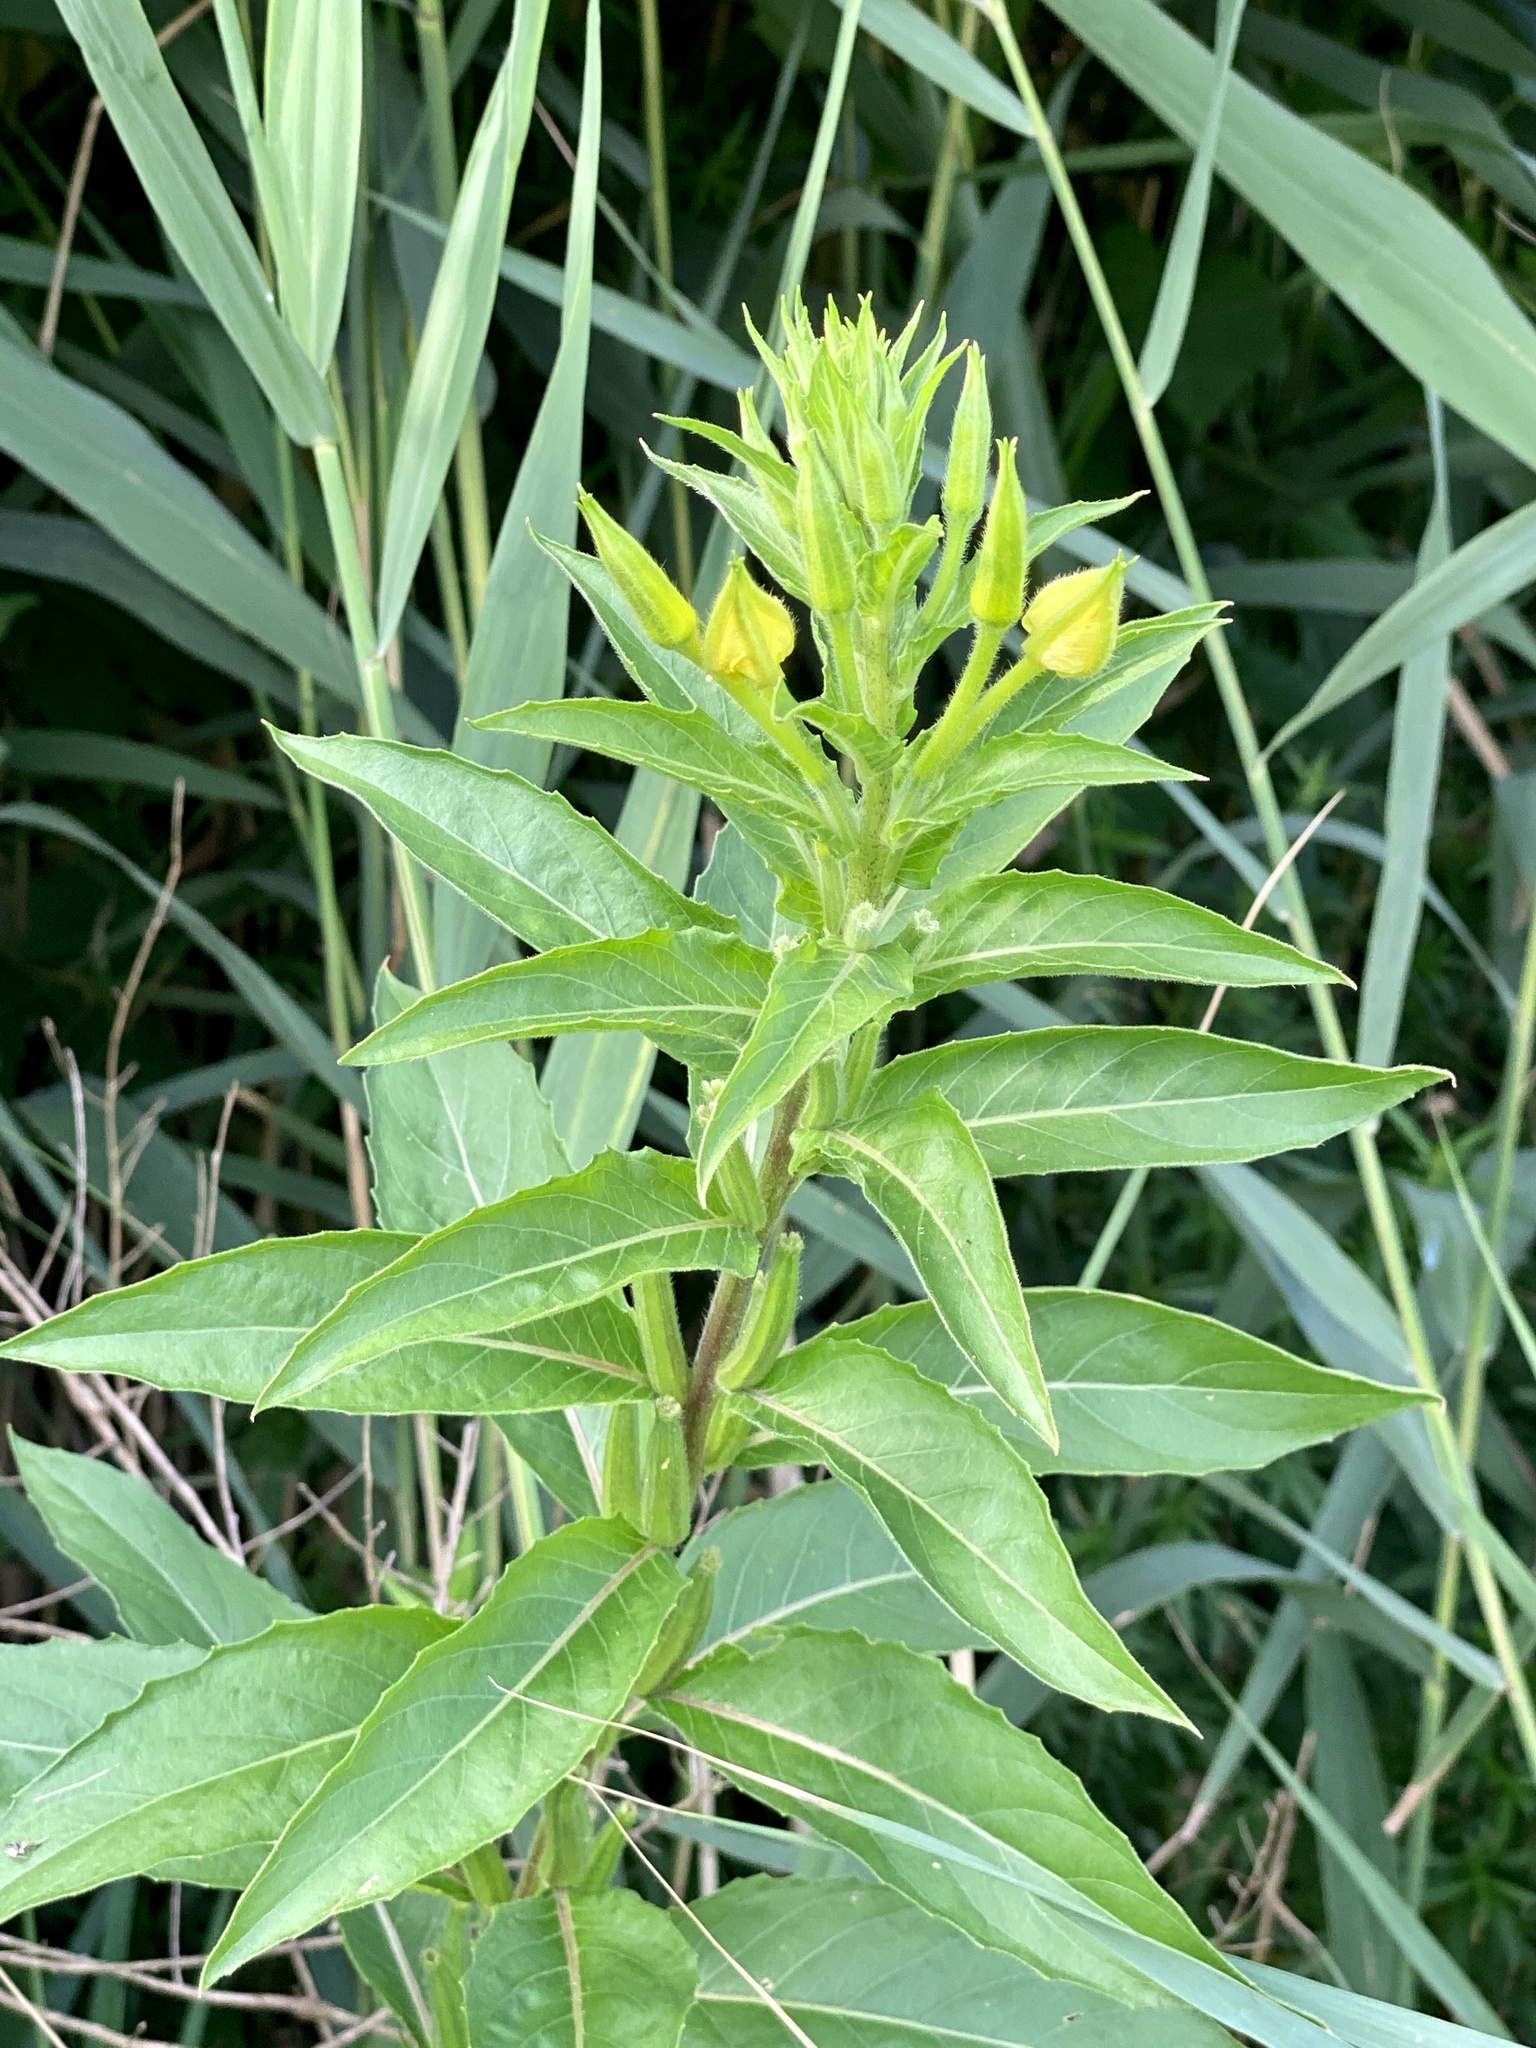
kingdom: Plantae
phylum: Tracheophyta
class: Magnoliopsida
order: Myrtales
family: Onagraceae
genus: Oenothera
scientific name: Oenothera biennis
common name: Common evening-primrose
